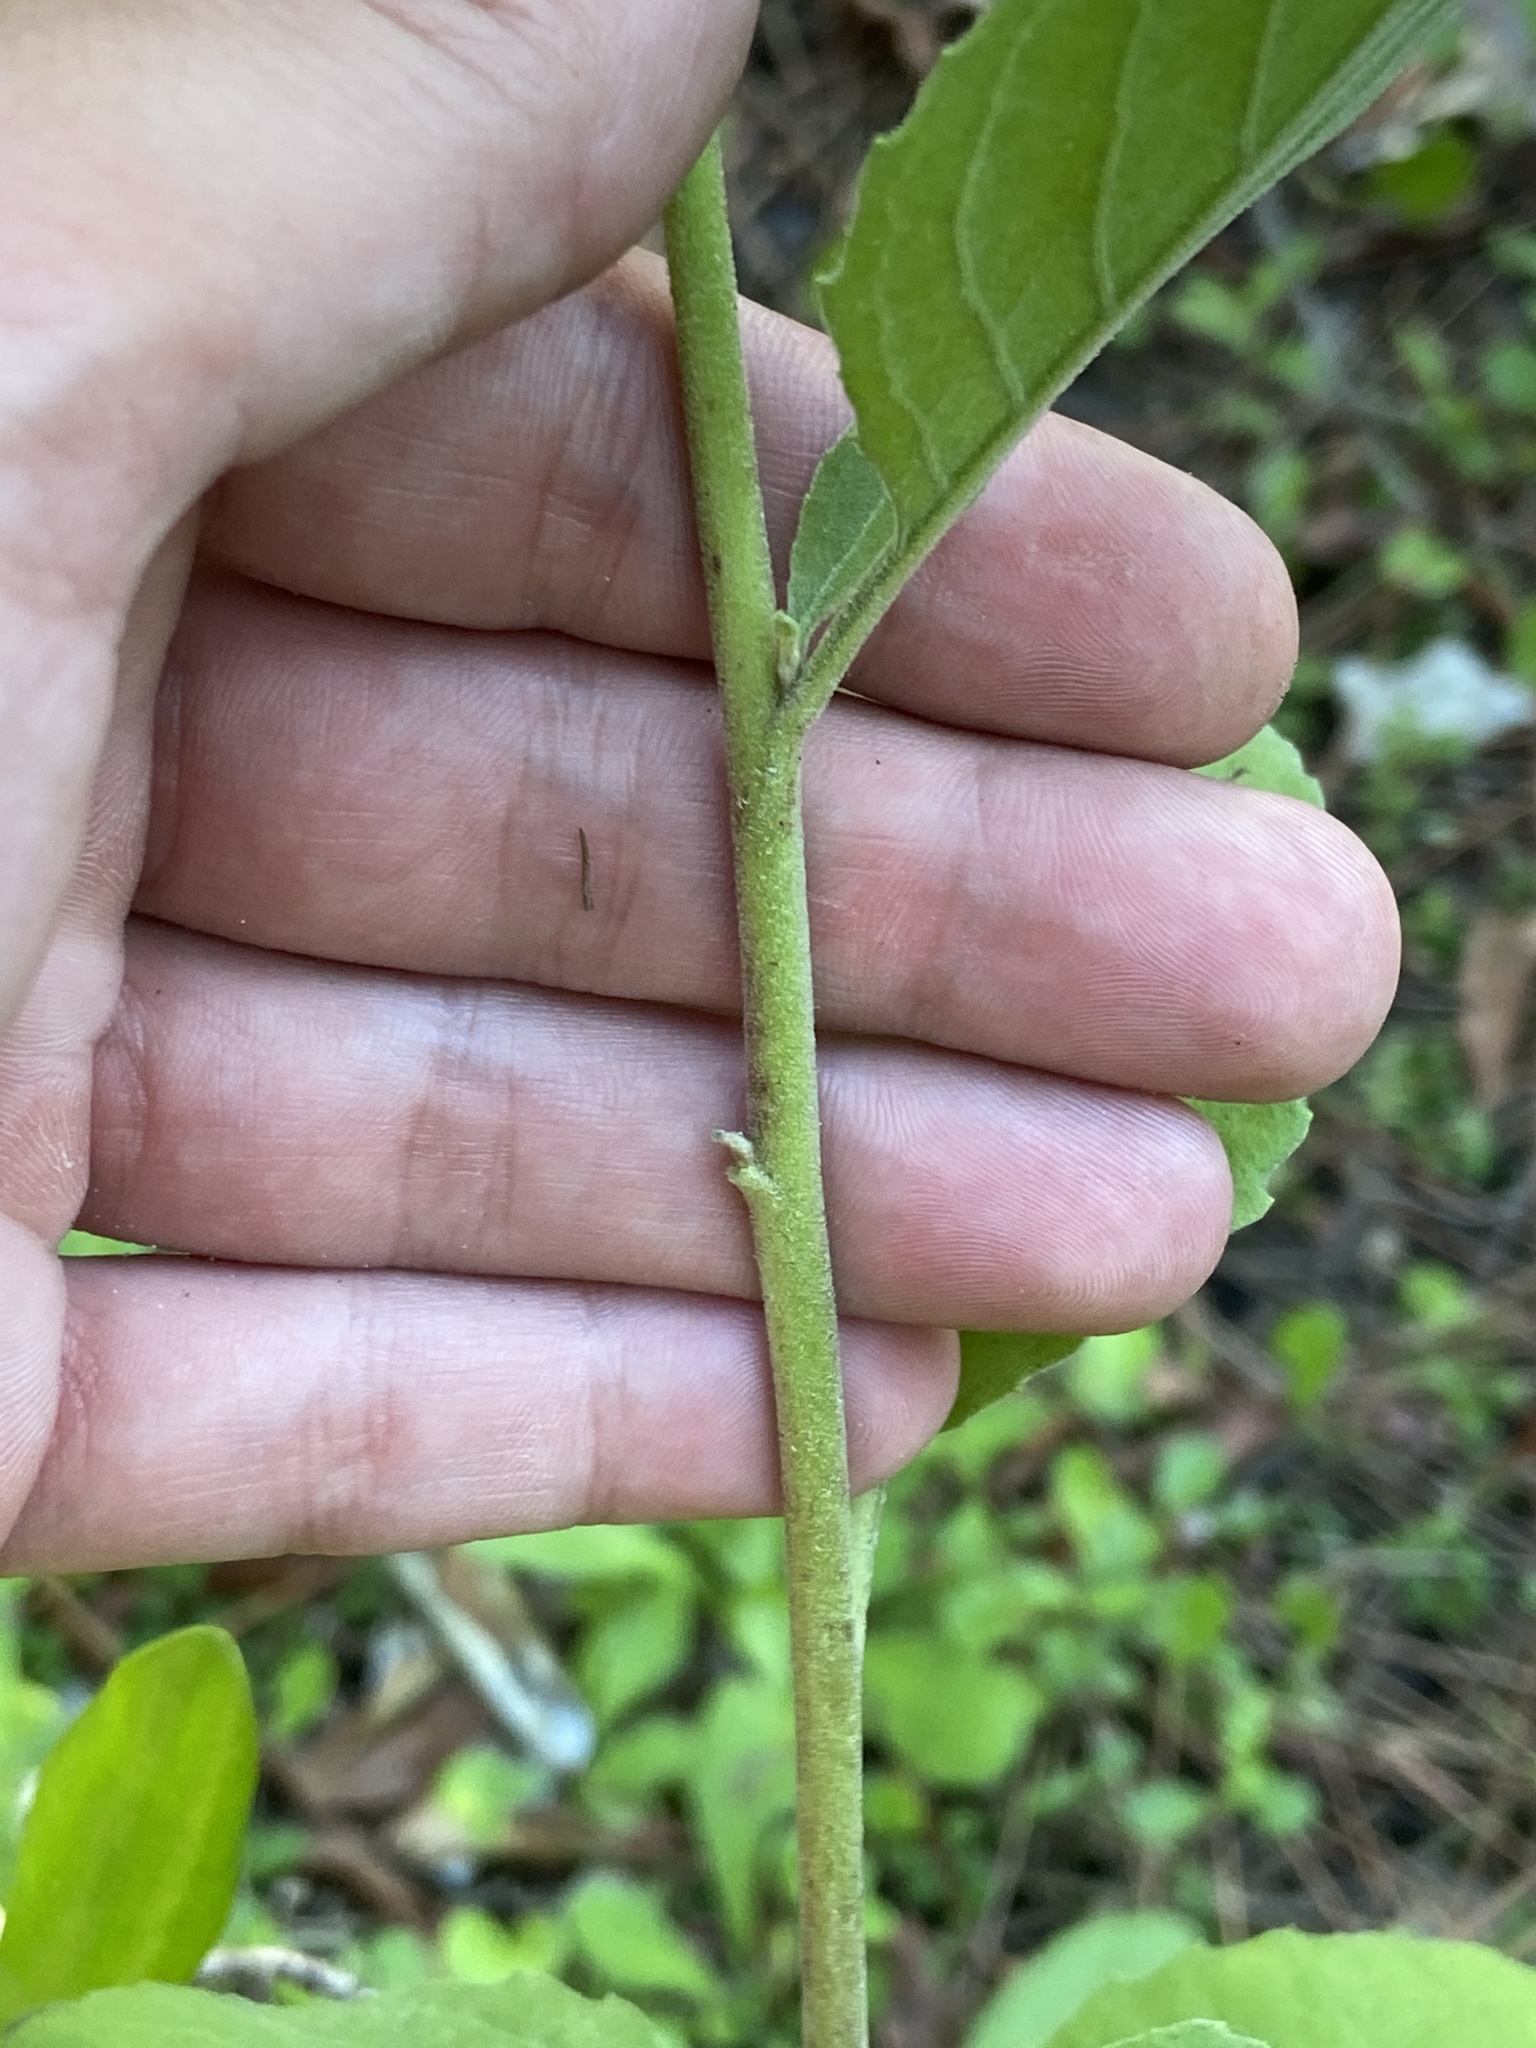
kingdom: Plantae
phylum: Tracheophyta
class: Magnoliopsida
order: Asterales
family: Asteraceae
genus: Pluchea
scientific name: Pluchea odorata
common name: Saltmarsh fleabane
